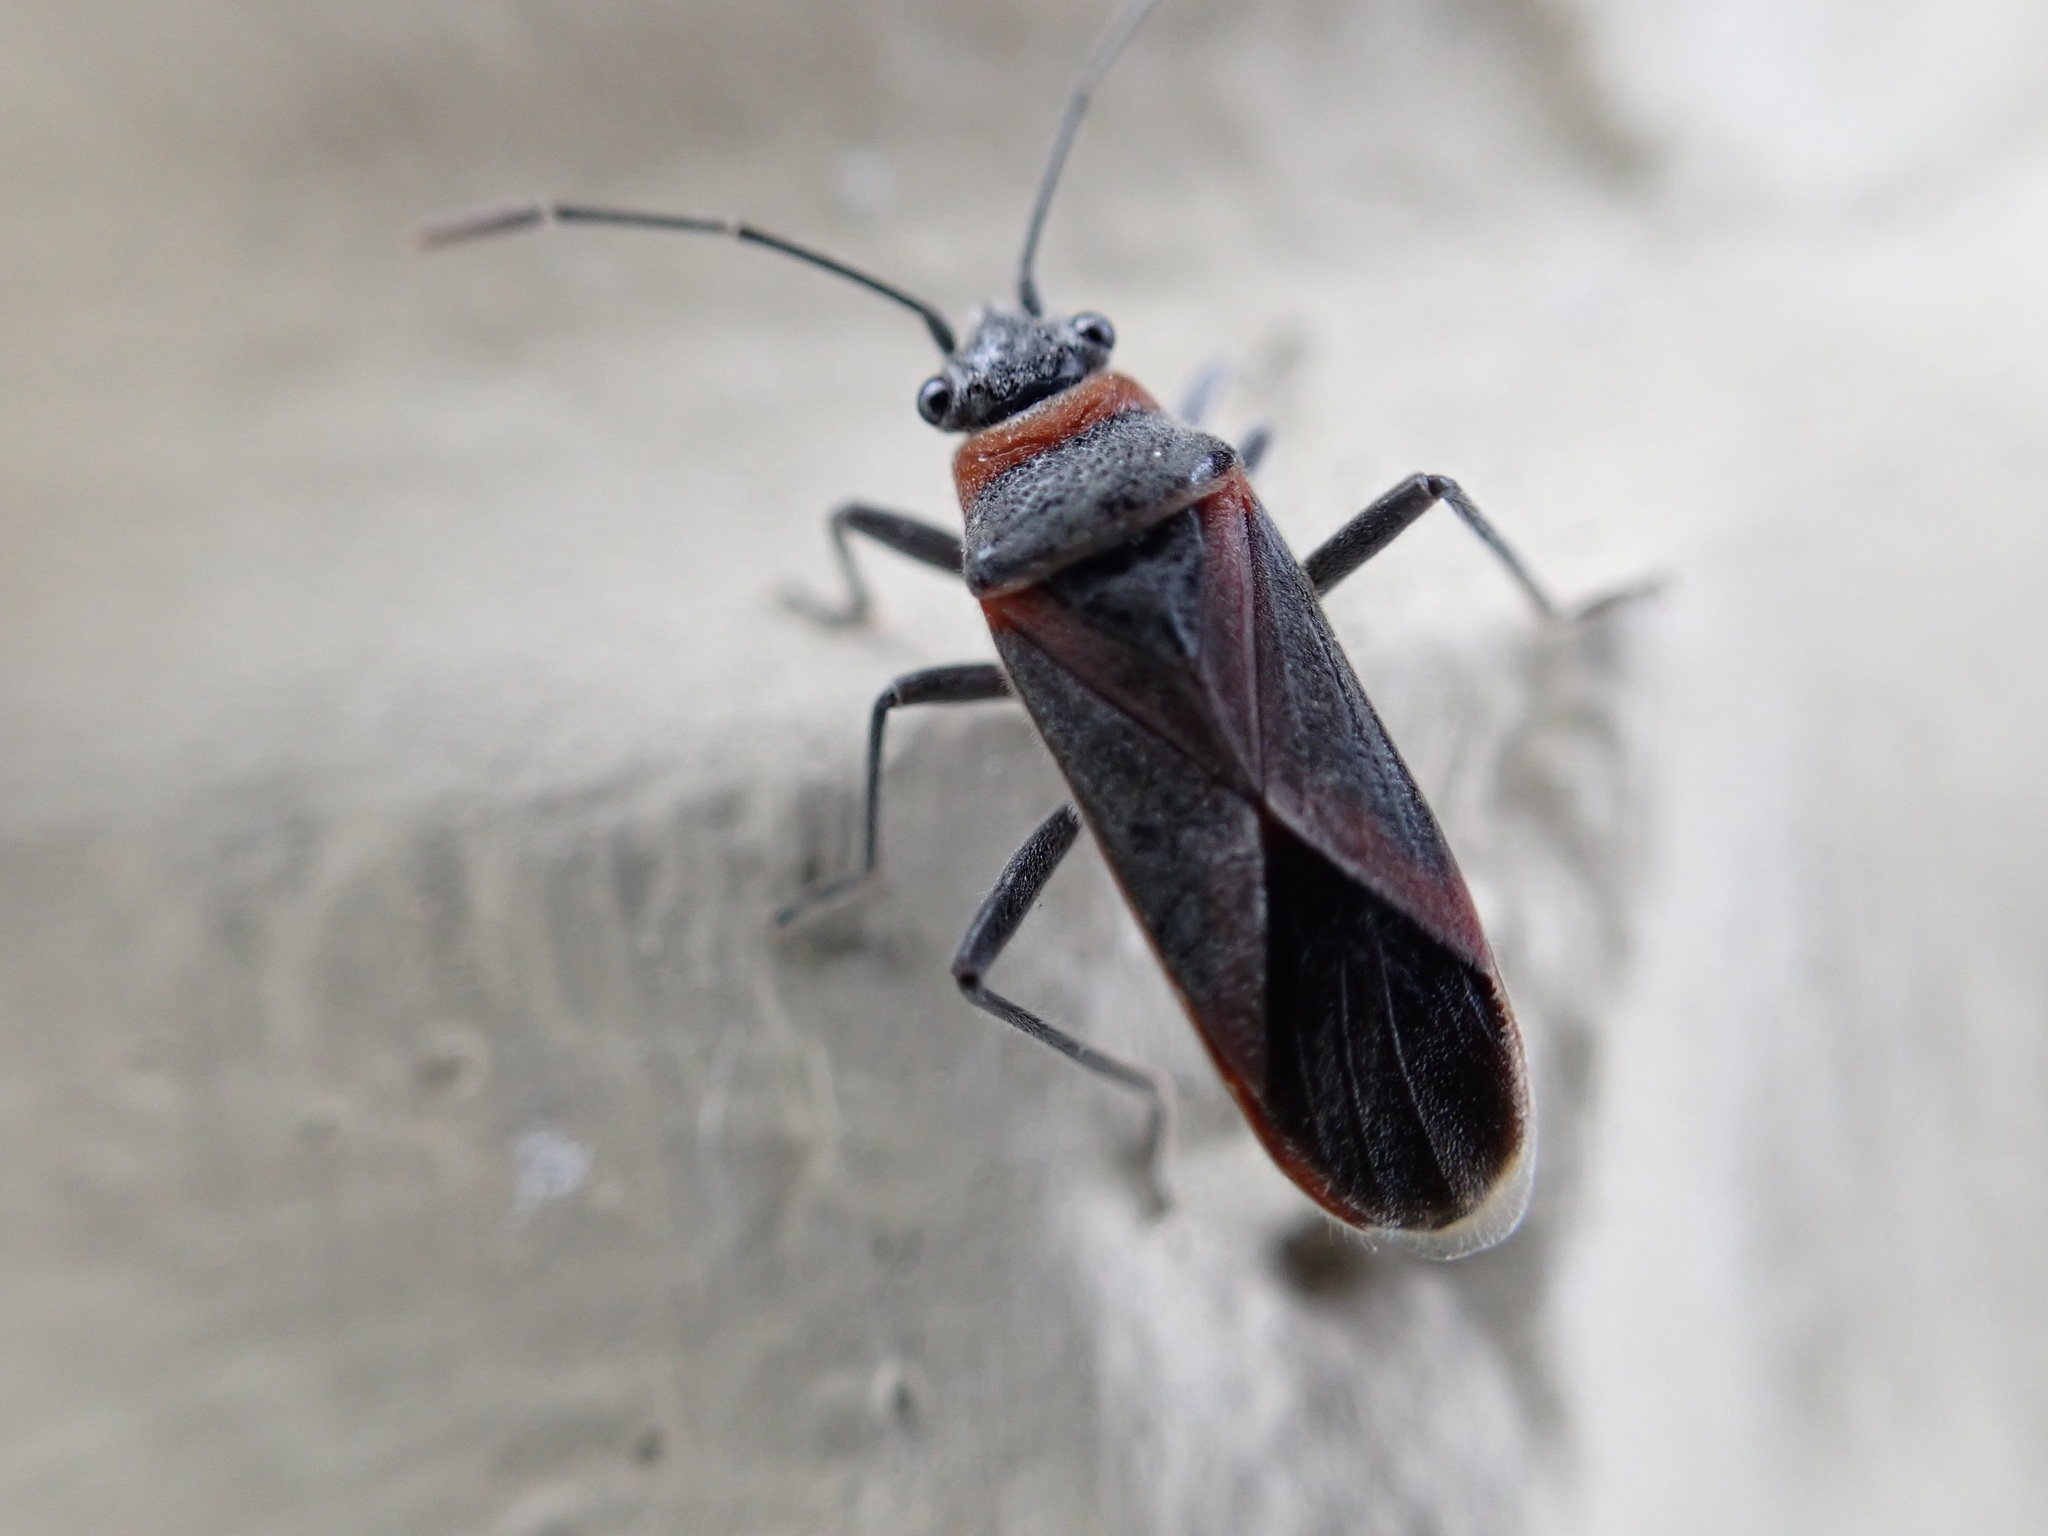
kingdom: Animalia
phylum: Arthropoda
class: Insecta
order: Hemiptera
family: Lygaeidae
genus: Arocatus
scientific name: Arocatus rusticus
